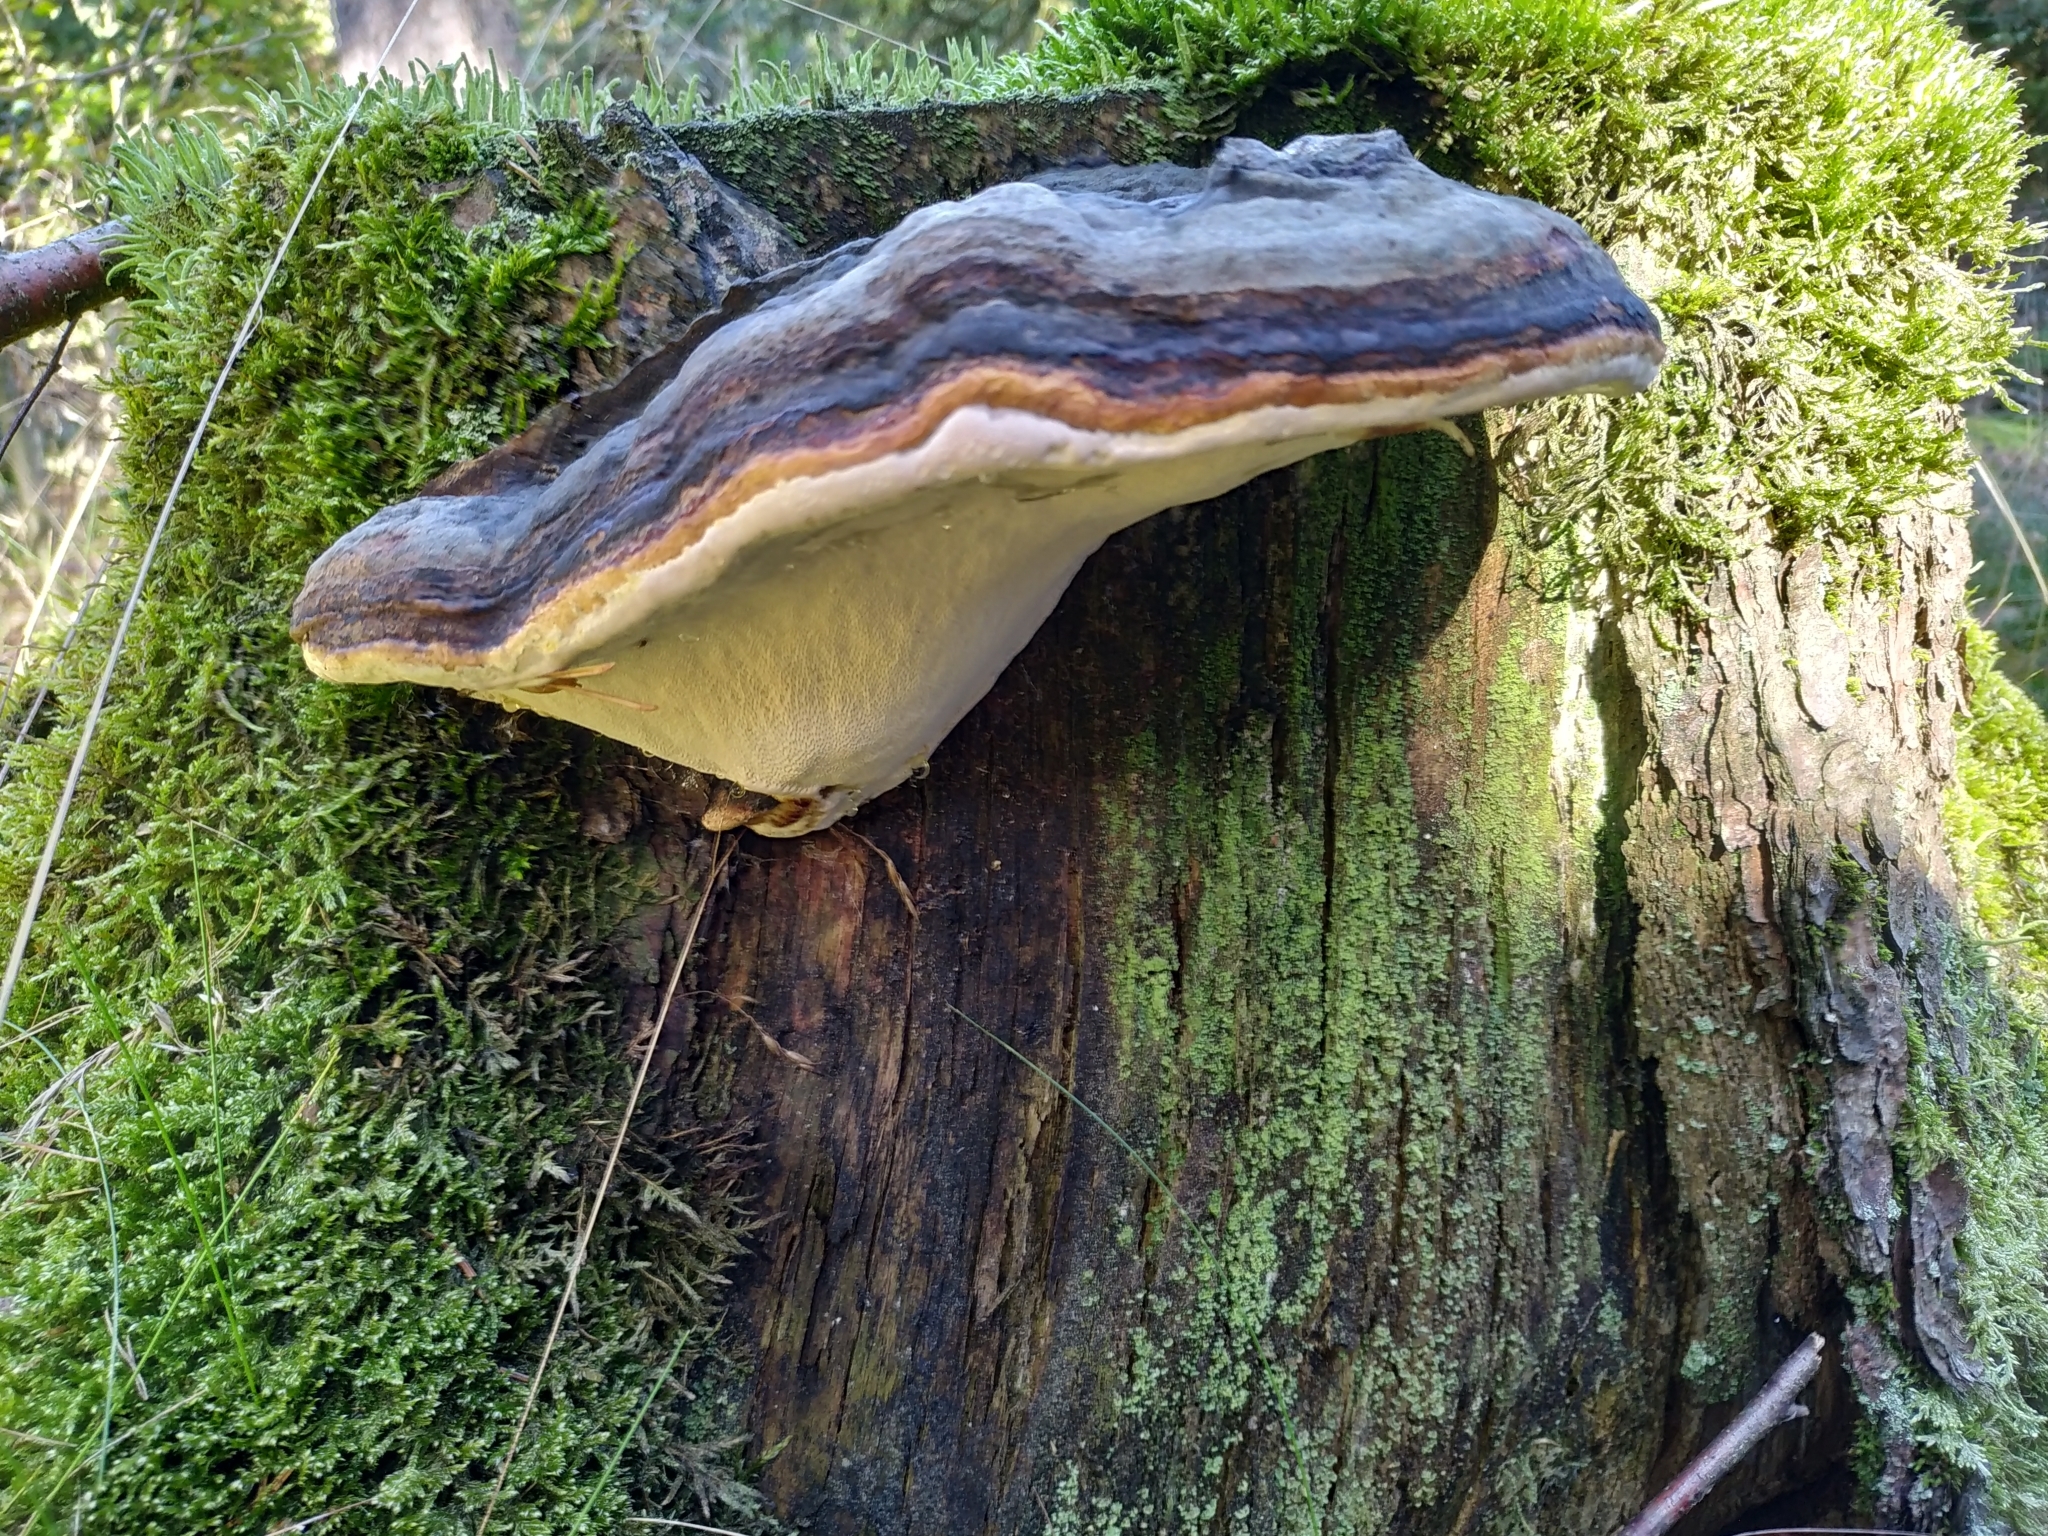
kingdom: Fungi
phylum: Basidiomycota
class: Agaricomycetes
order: Polyporales
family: Fomitopsidaceae
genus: Fomitopsis
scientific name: Fomitopsis pinicola
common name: Red-belted bracket
